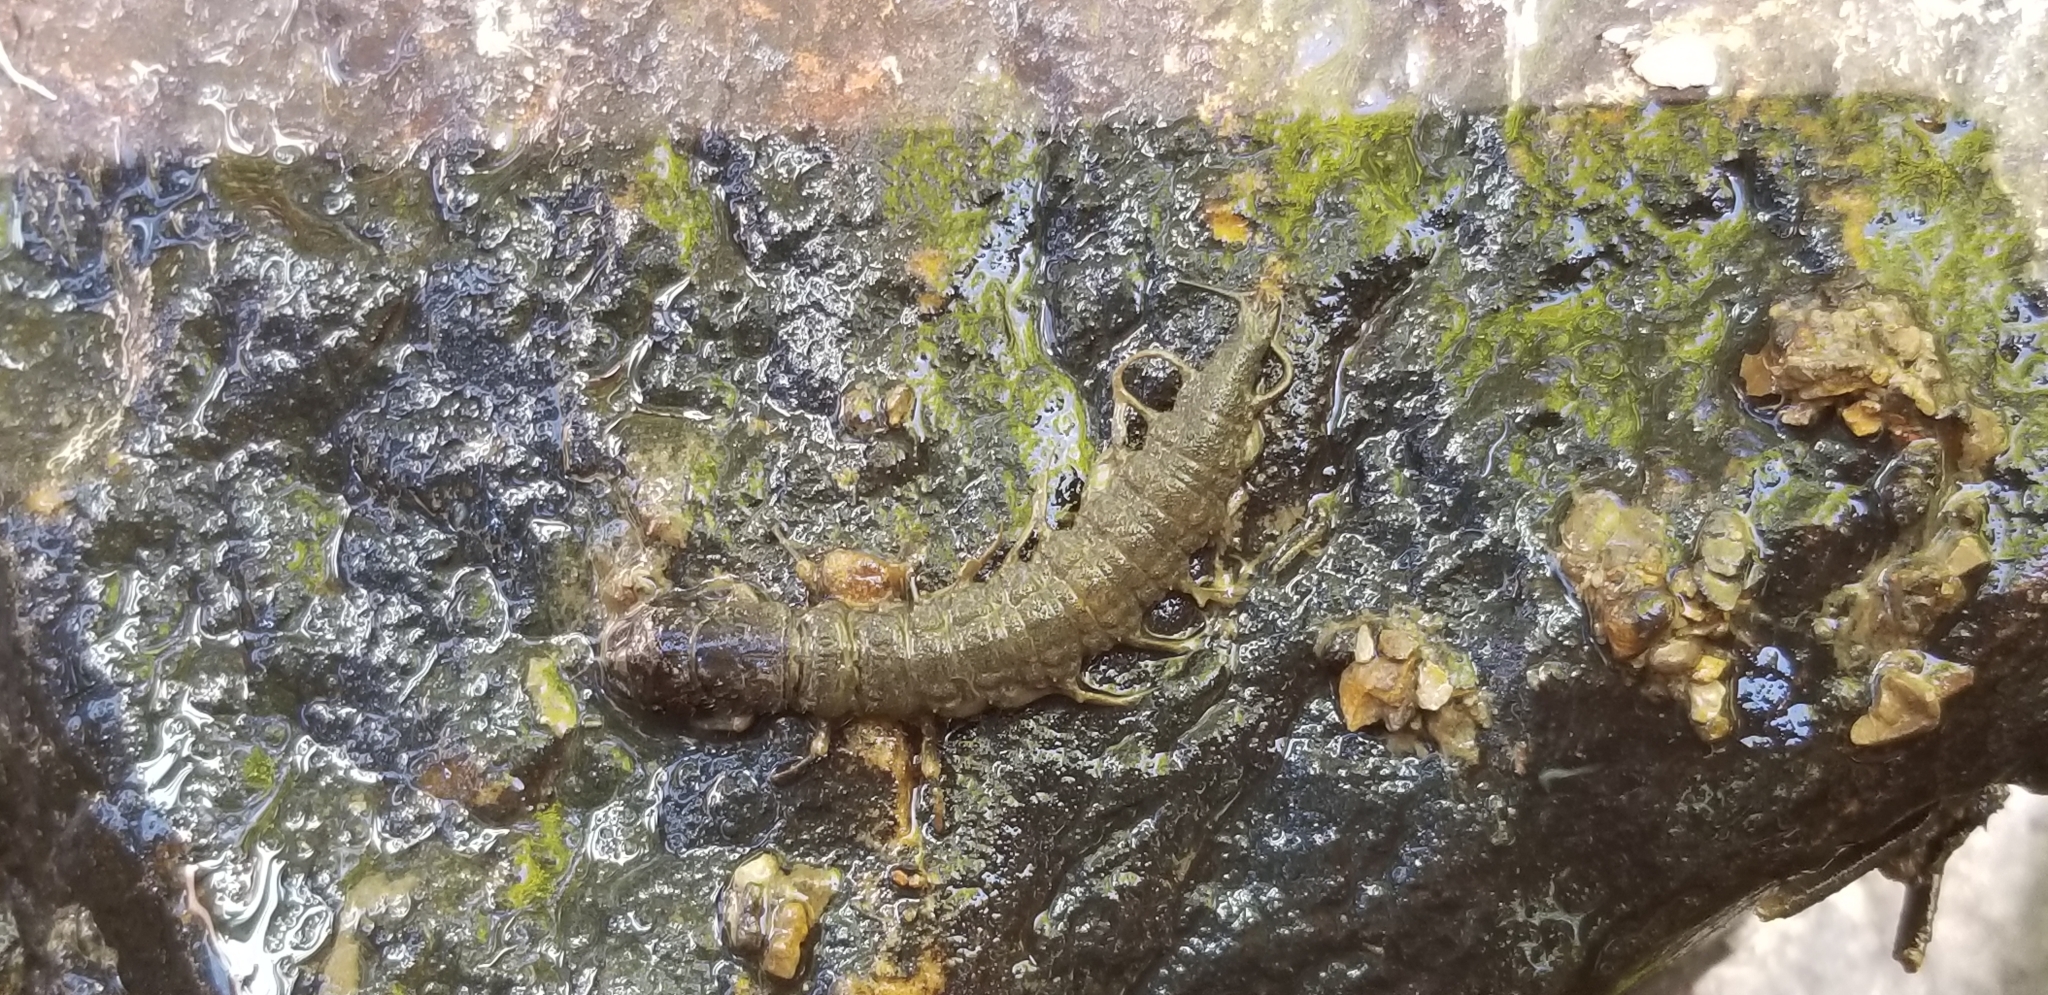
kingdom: Animalia
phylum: Arthropoda
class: Insecta
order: Megaloptera
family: Corydalidae
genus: Corydalus
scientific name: Corydalus cornutus
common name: Dobsonfly
